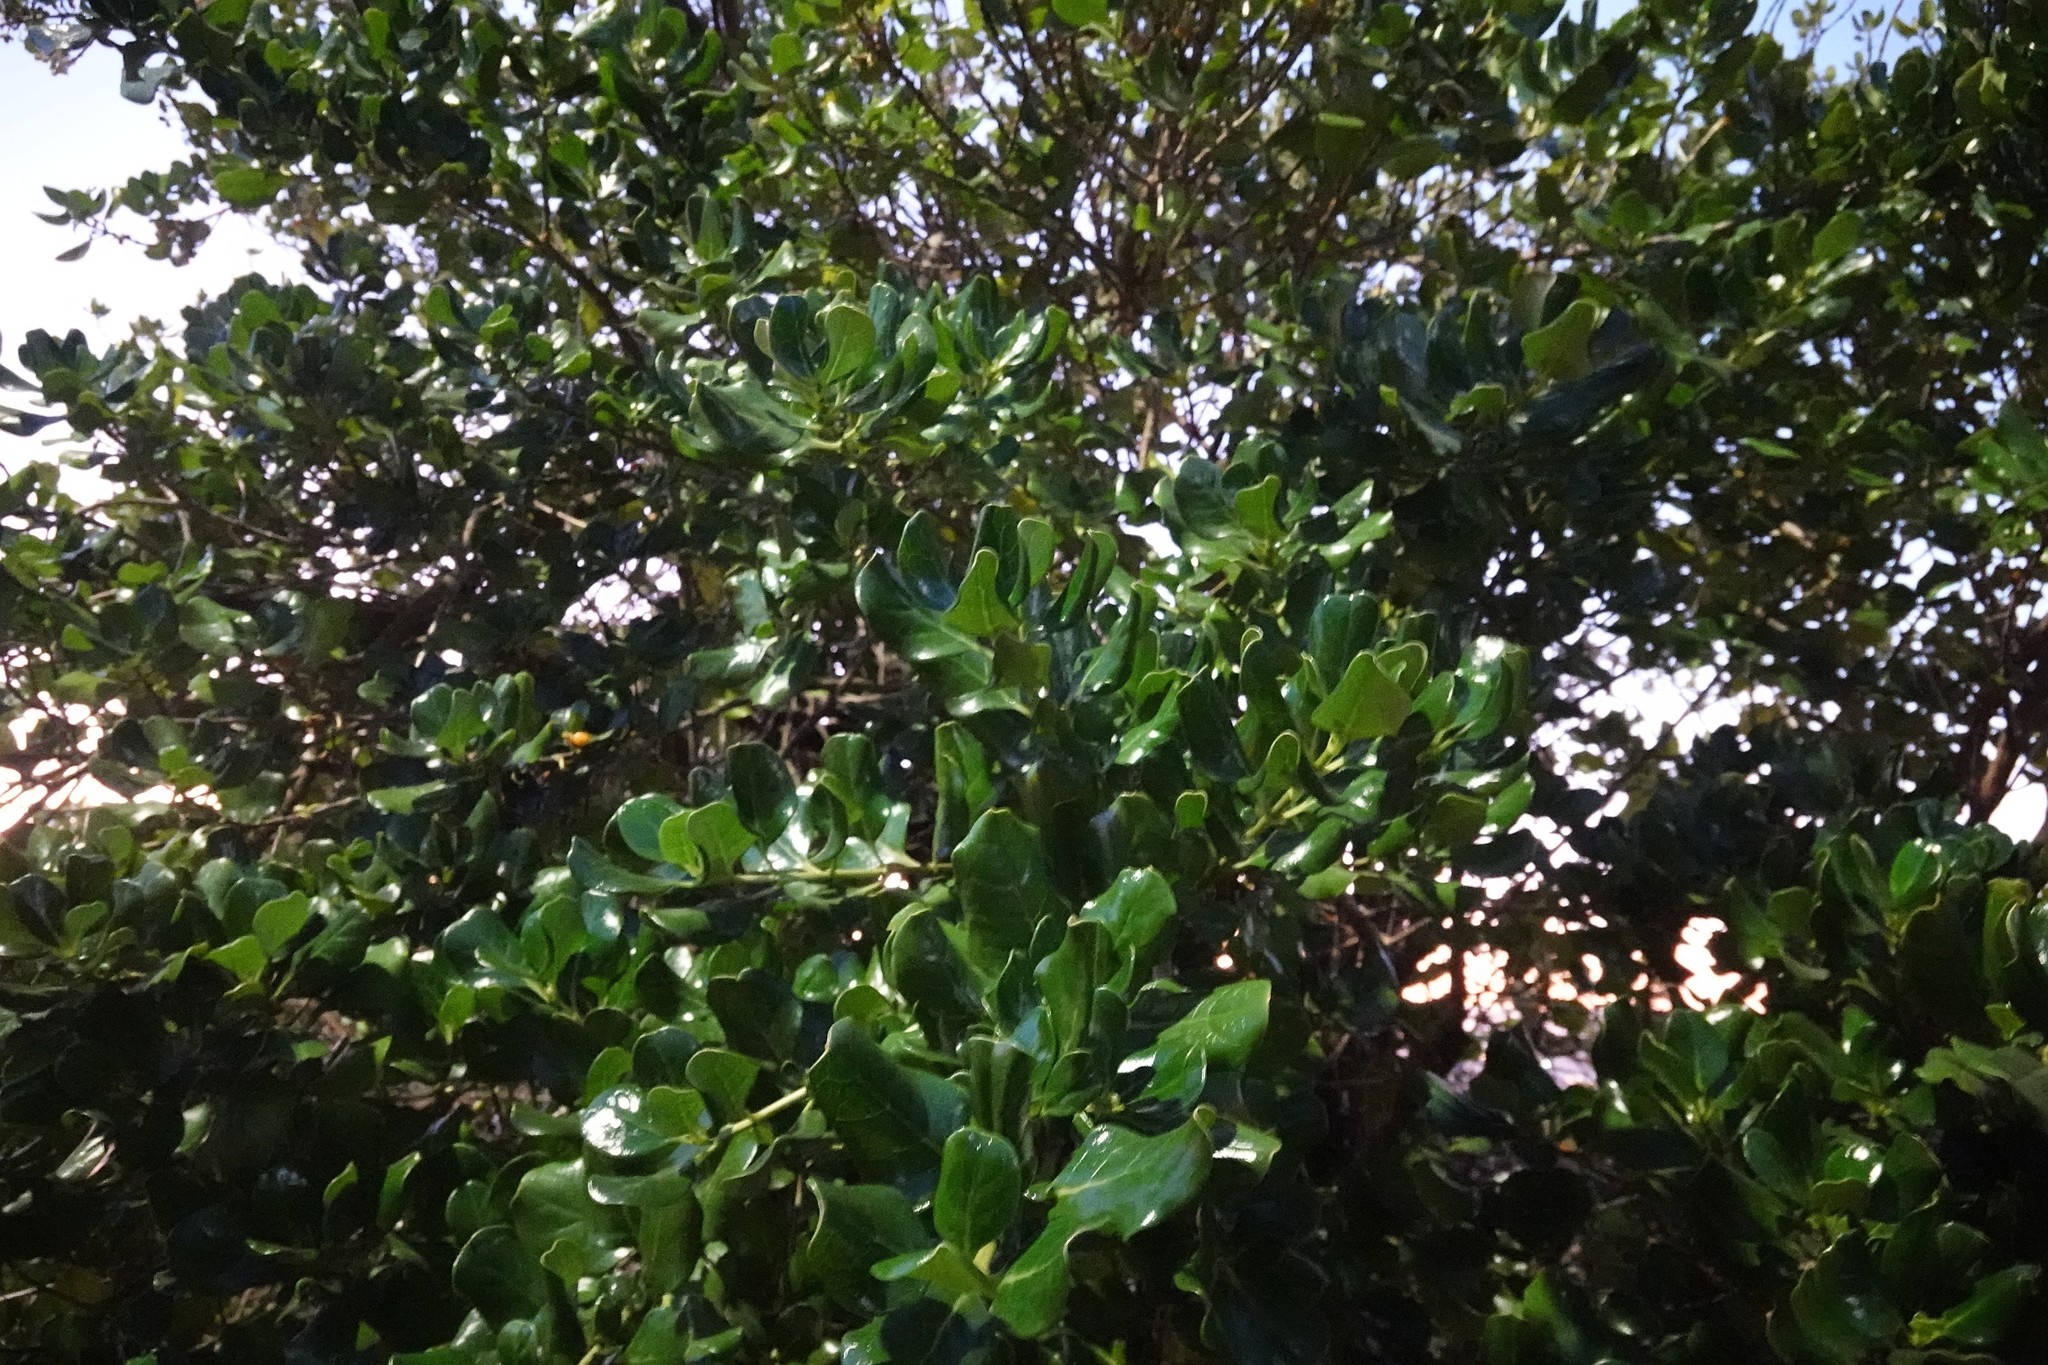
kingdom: Plantae
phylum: Tracheophyta
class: Magnoliopsida
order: Gentianales
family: Rubiaceae
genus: Coprosma
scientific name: Coprosma repens
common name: Tree bedstraw
